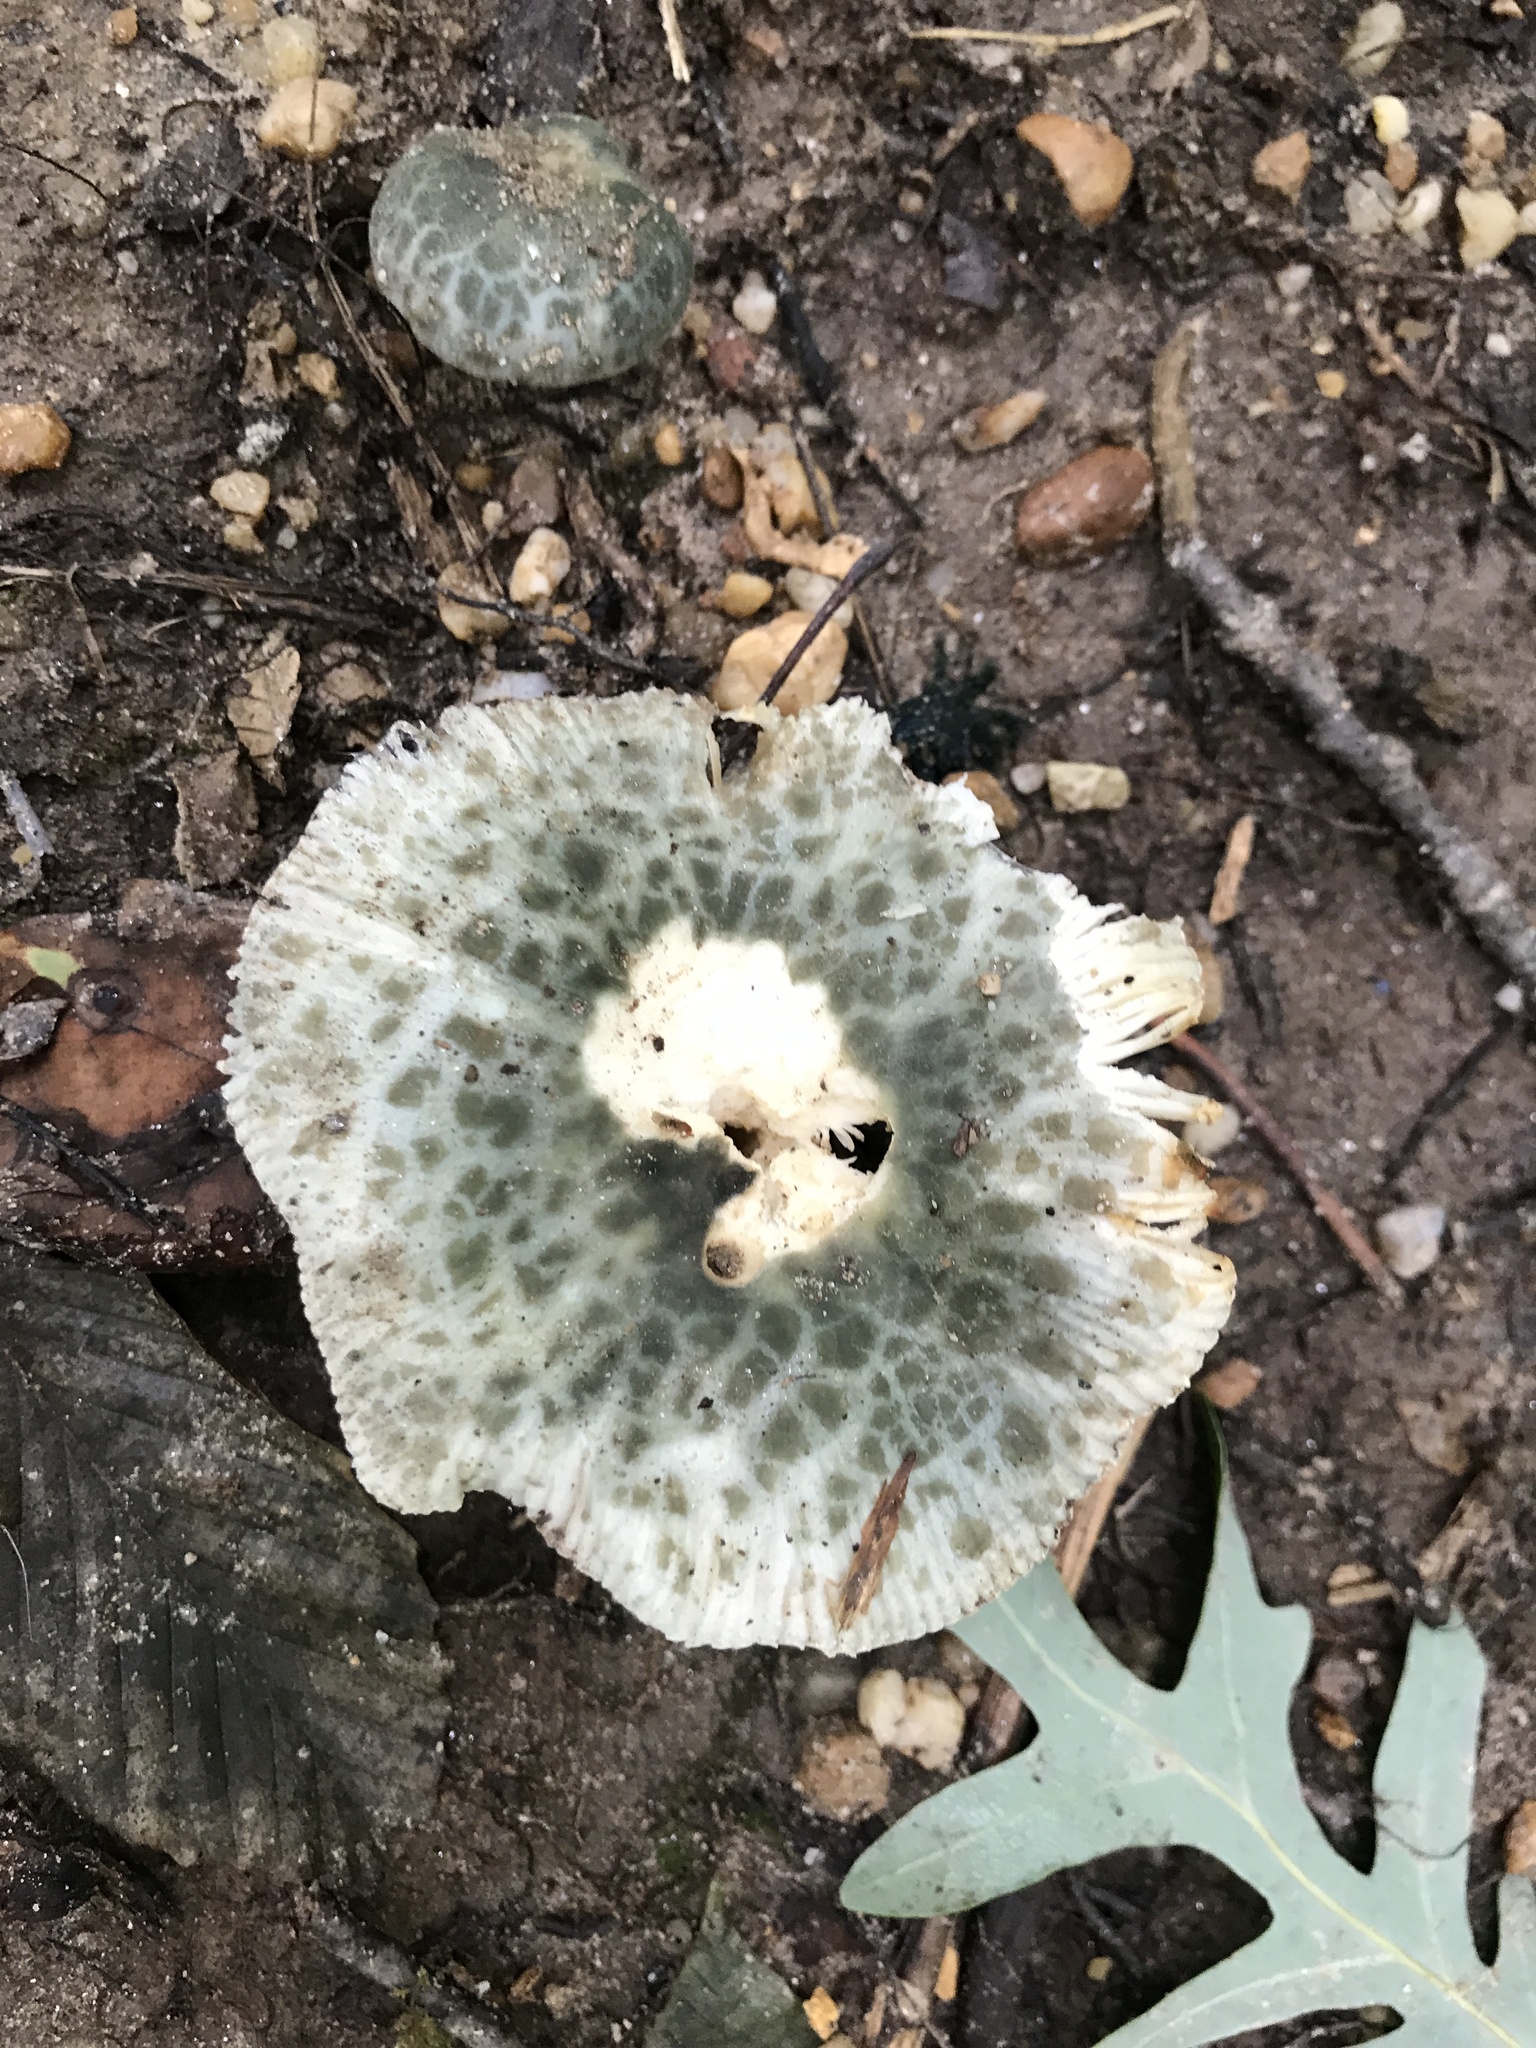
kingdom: Fungi
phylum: Basidiomycota
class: Agaricomycetes
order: Russulales
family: Russulaceae
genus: Russula
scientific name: Russula parvovirescens
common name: Blue-green cracking russula
